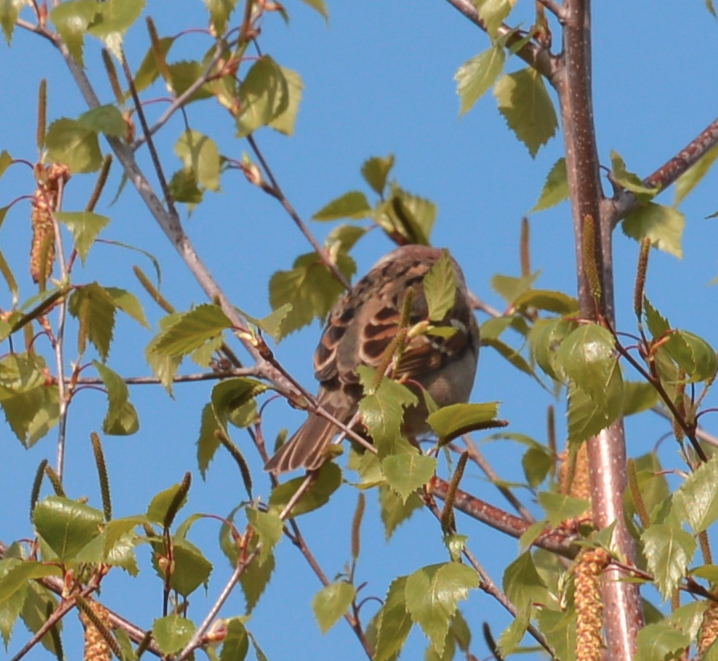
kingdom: Animalia
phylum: Chordata
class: Aves
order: Passeriformes
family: Passeridae
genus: Passer
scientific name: Passer domesticus
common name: House sparrow
